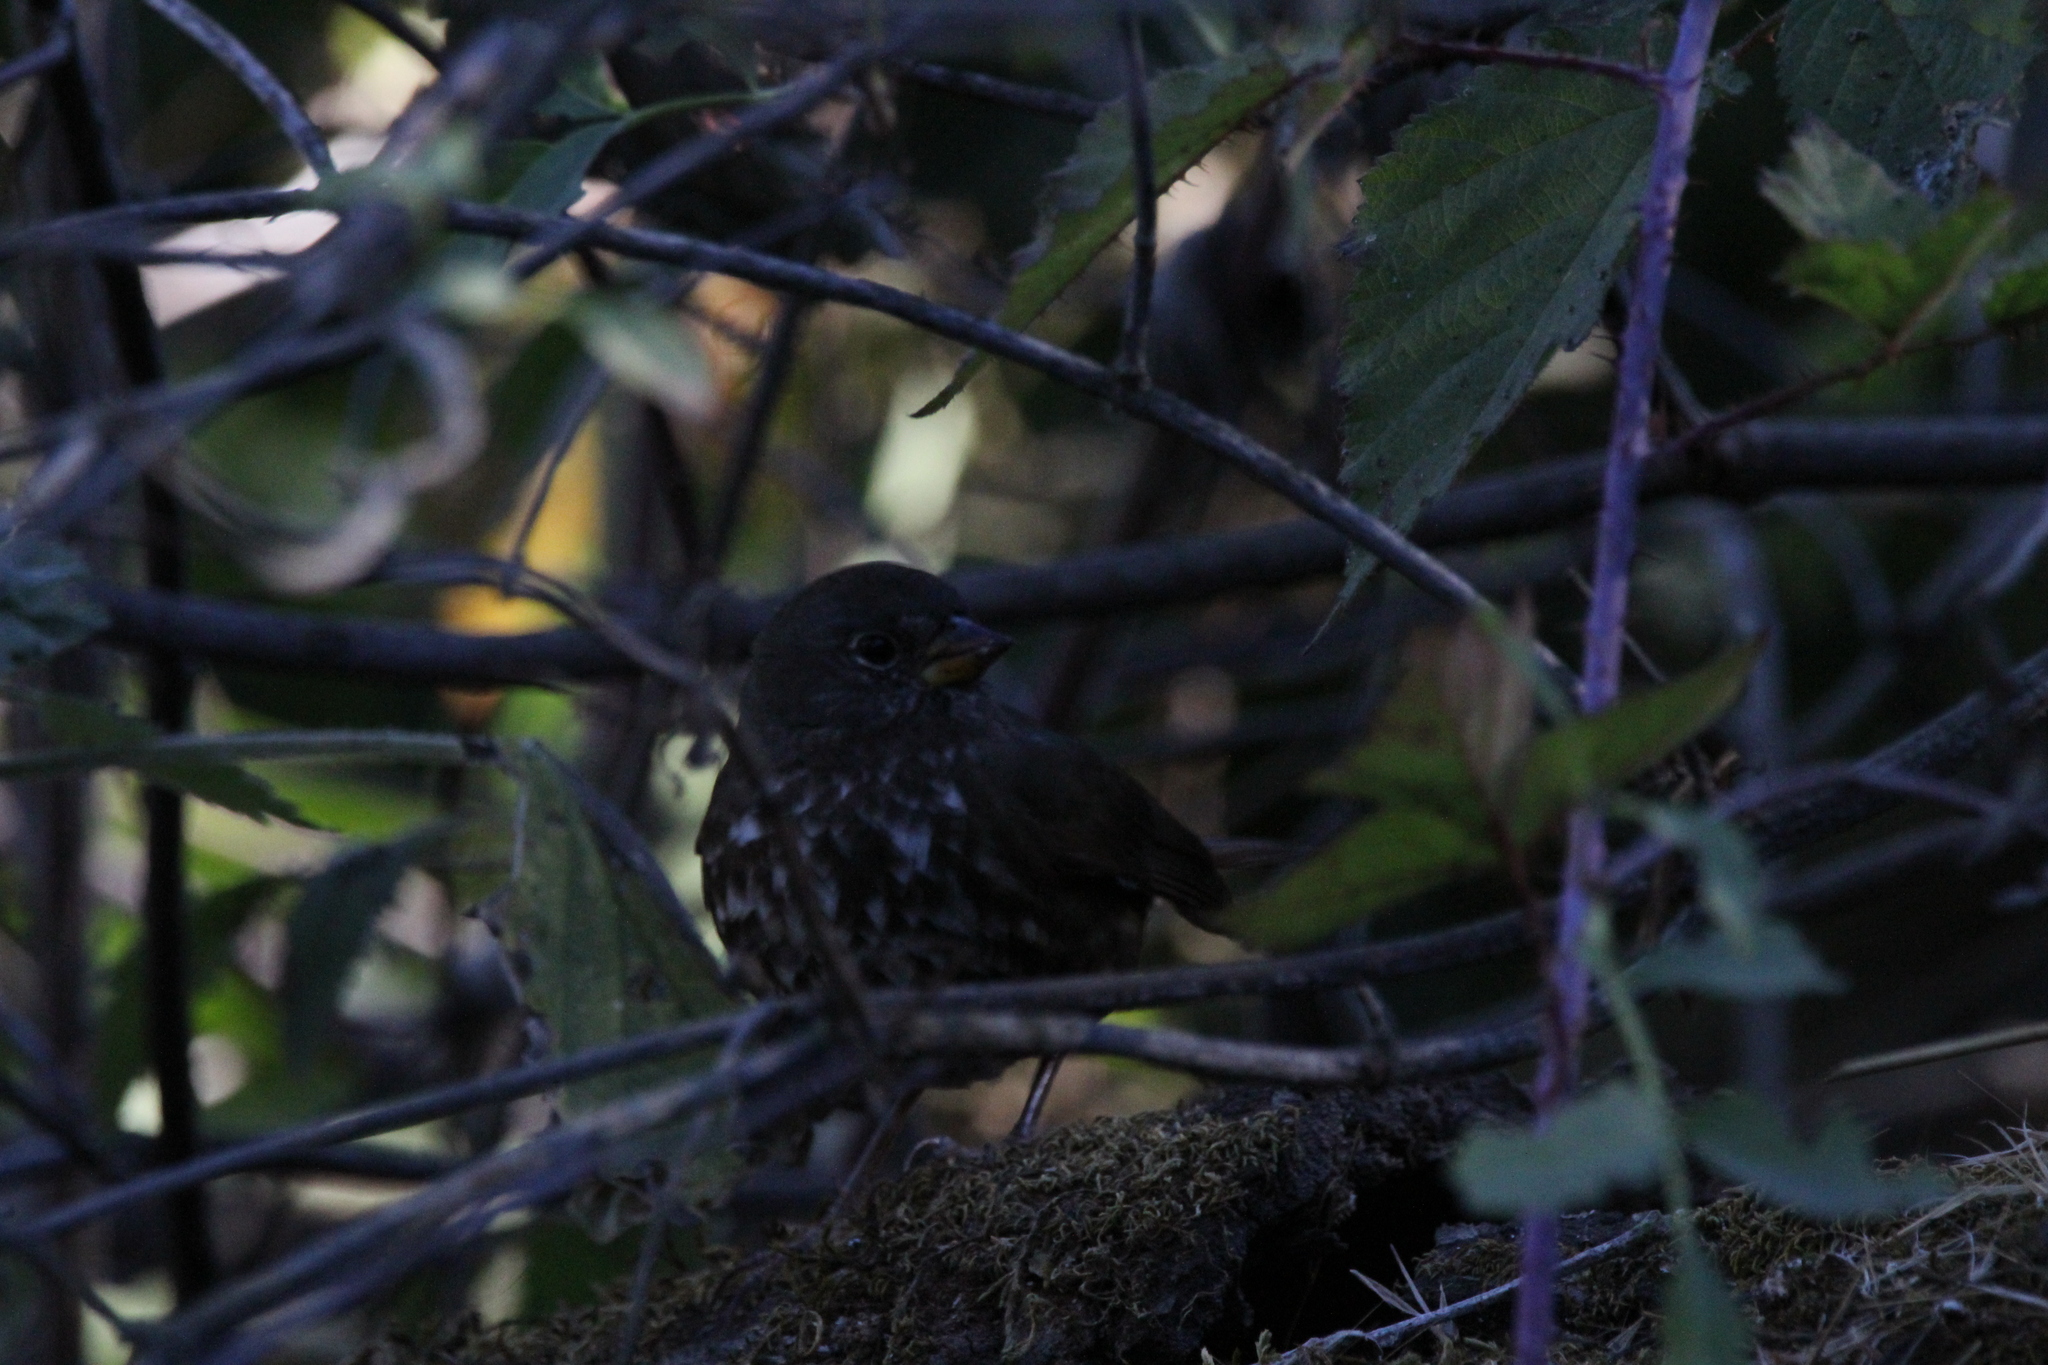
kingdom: Animalia
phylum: Chordata
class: Aves
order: Passeriformes
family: Passerellidae
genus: Passerella
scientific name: Passerella iliaca
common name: Fox sparrow
